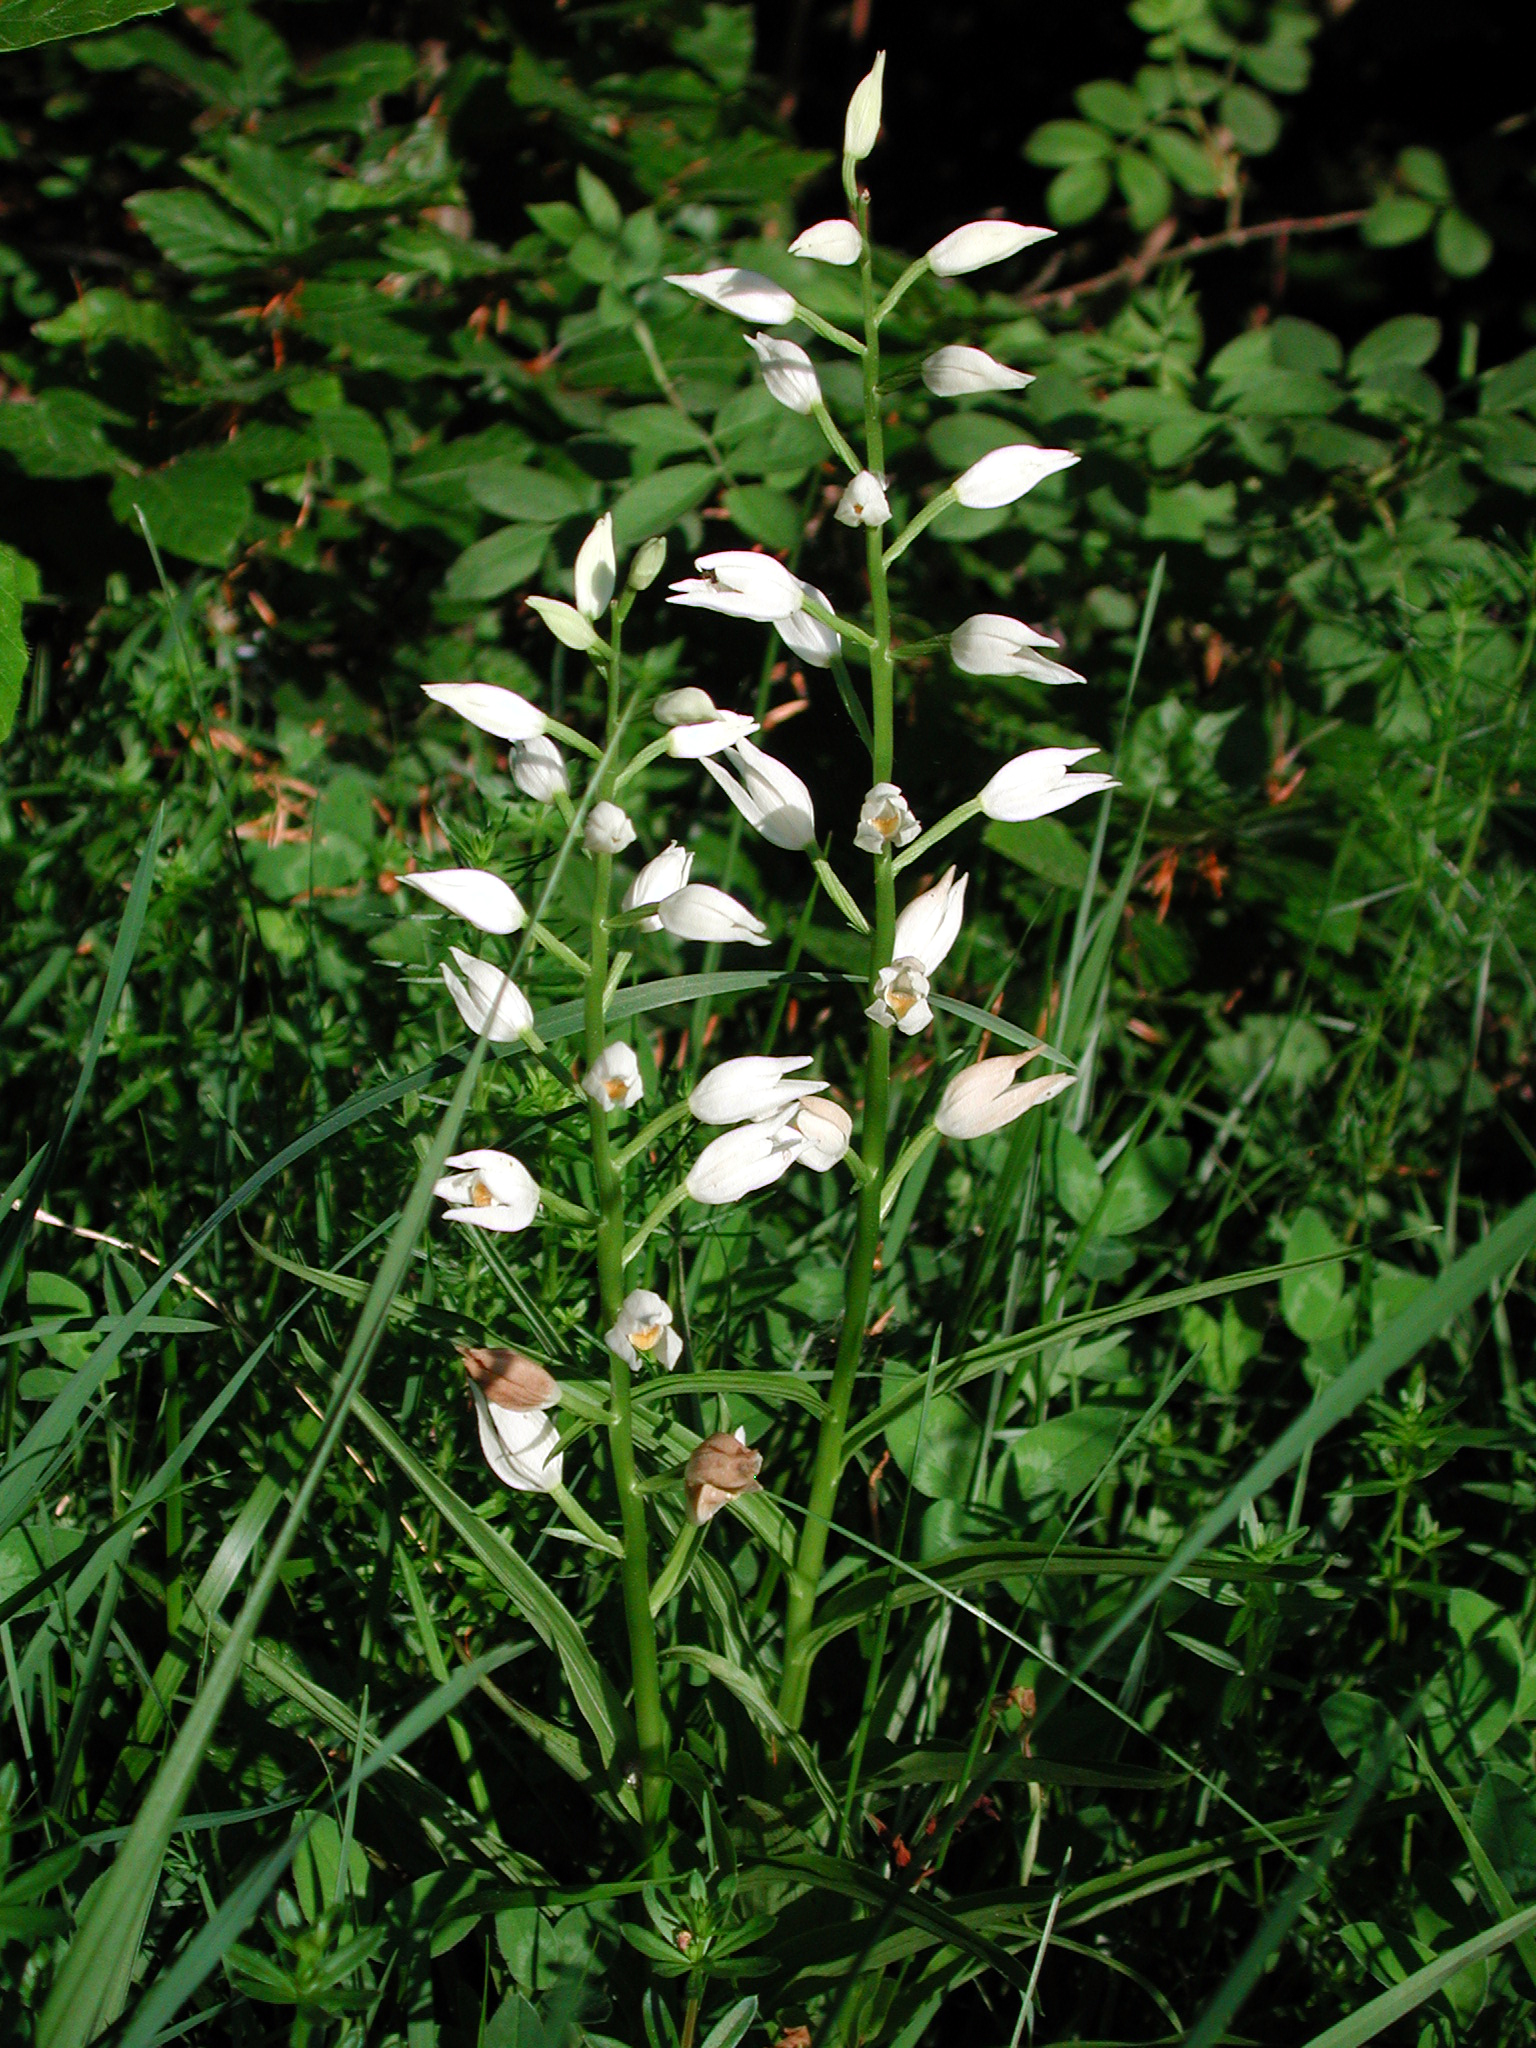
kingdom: Plantae
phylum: Tracheophyta
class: Liliopsida
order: Asparagales
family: Orchidaceae
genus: Cephalanthera
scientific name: Cephalanthera longifolia
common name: Narrow-leaved helleborine
